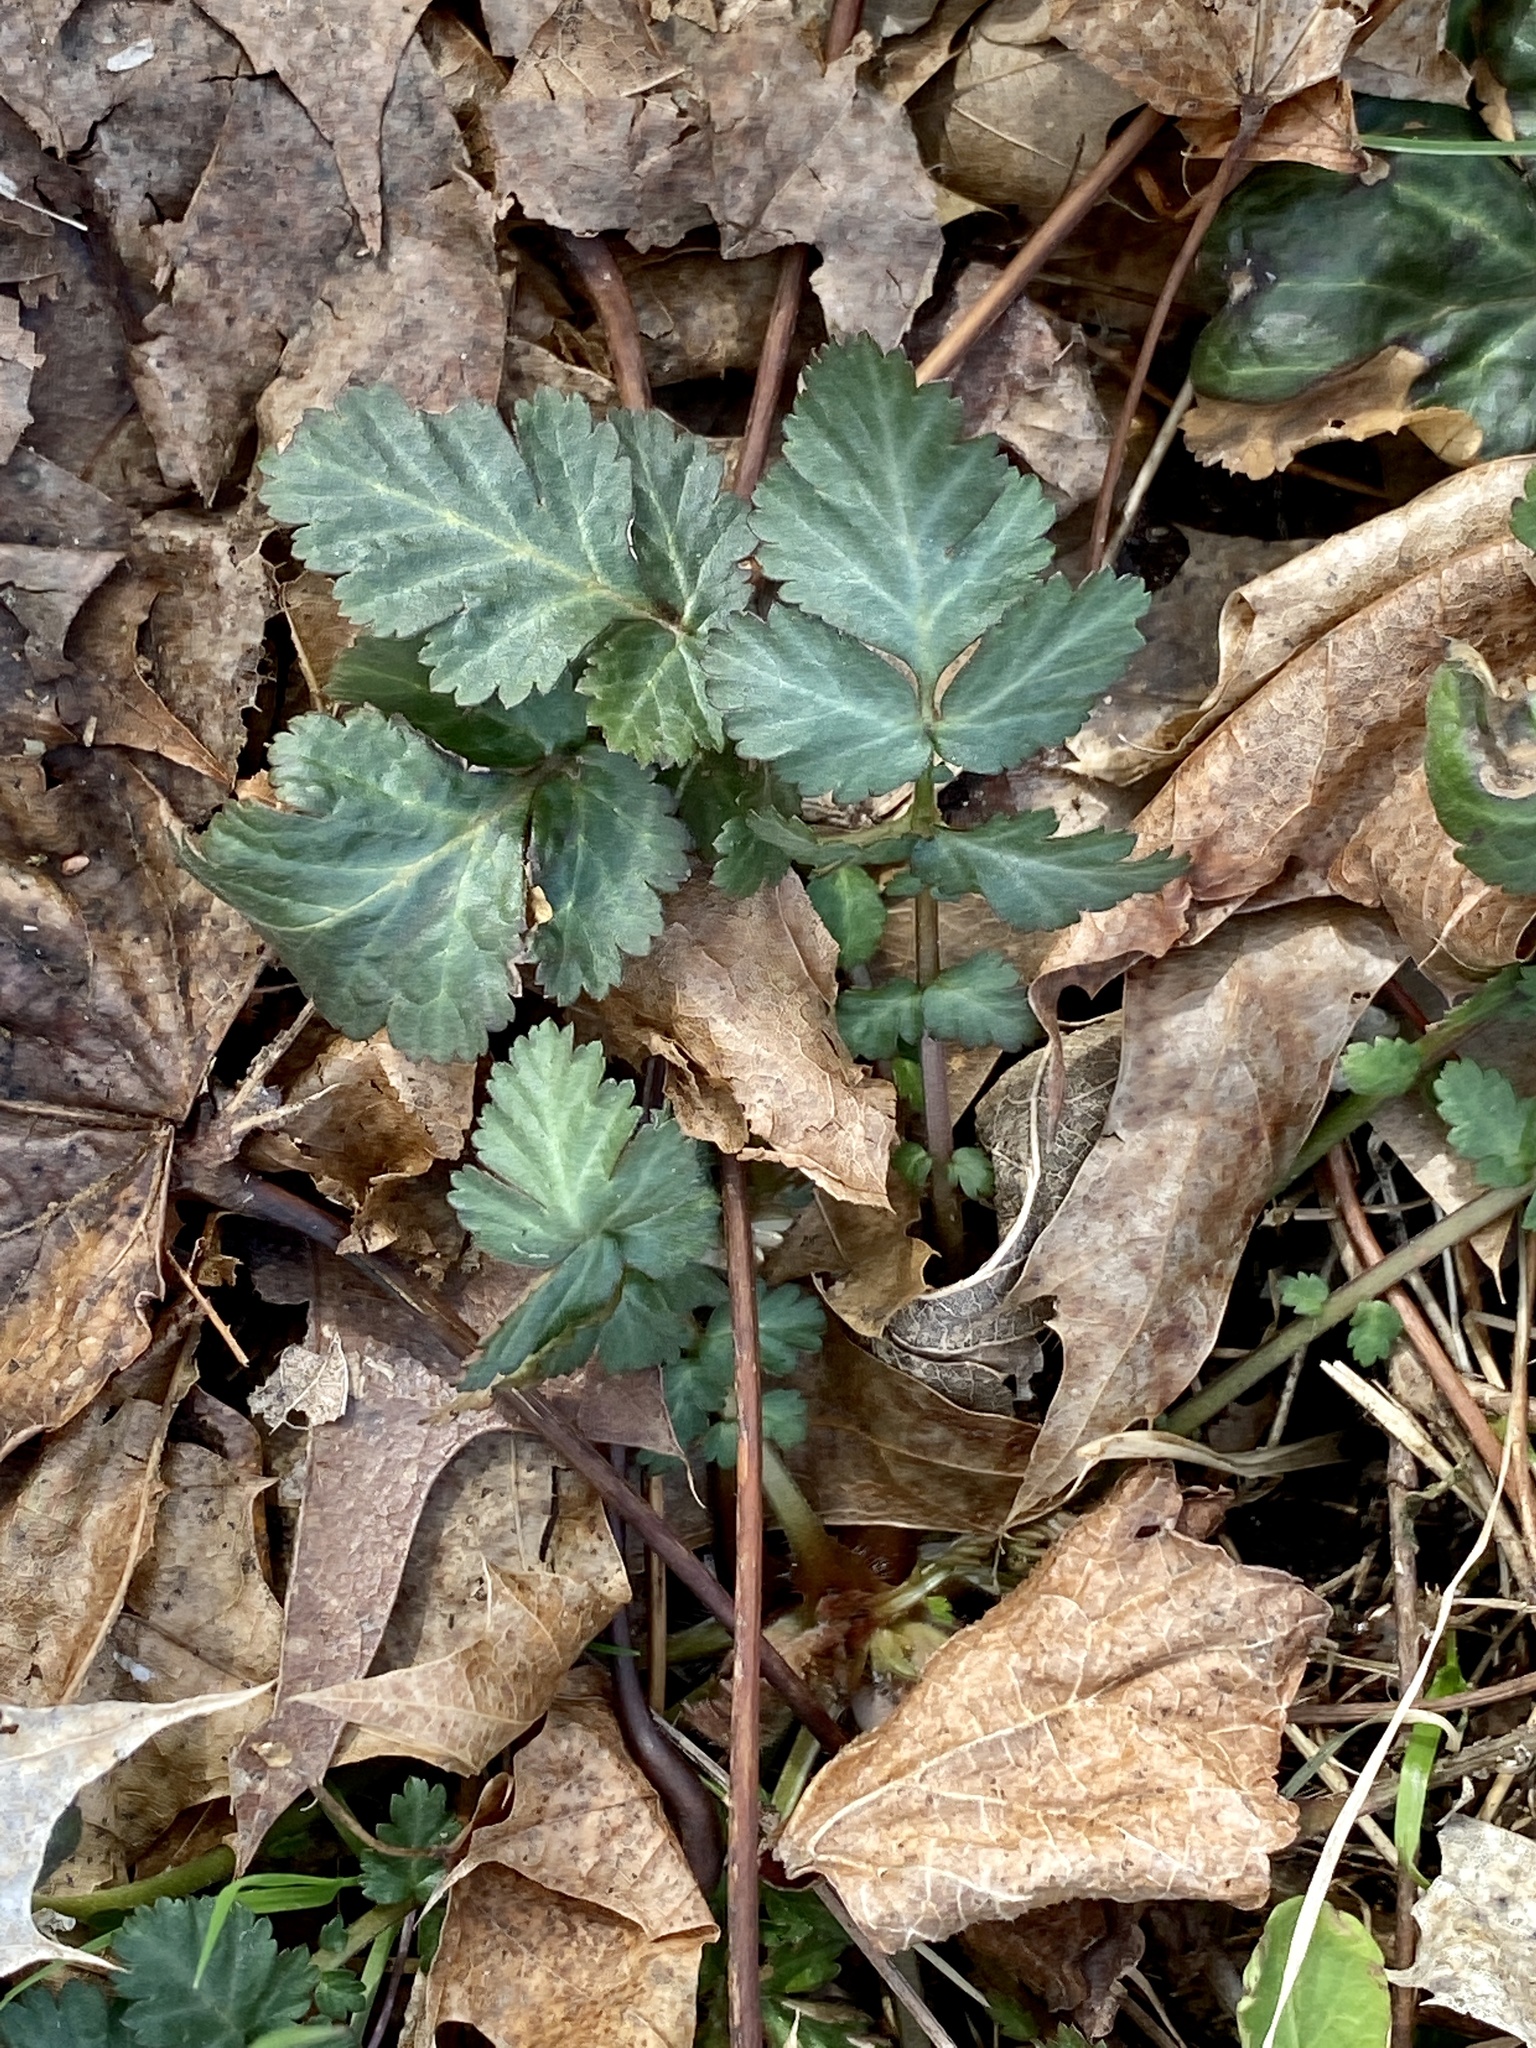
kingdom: Plantae
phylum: Tracheophyta
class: Magnoliopsida
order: Rosales
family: Rosaceae
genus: Geum
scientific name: Geum canadense
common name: White avens
